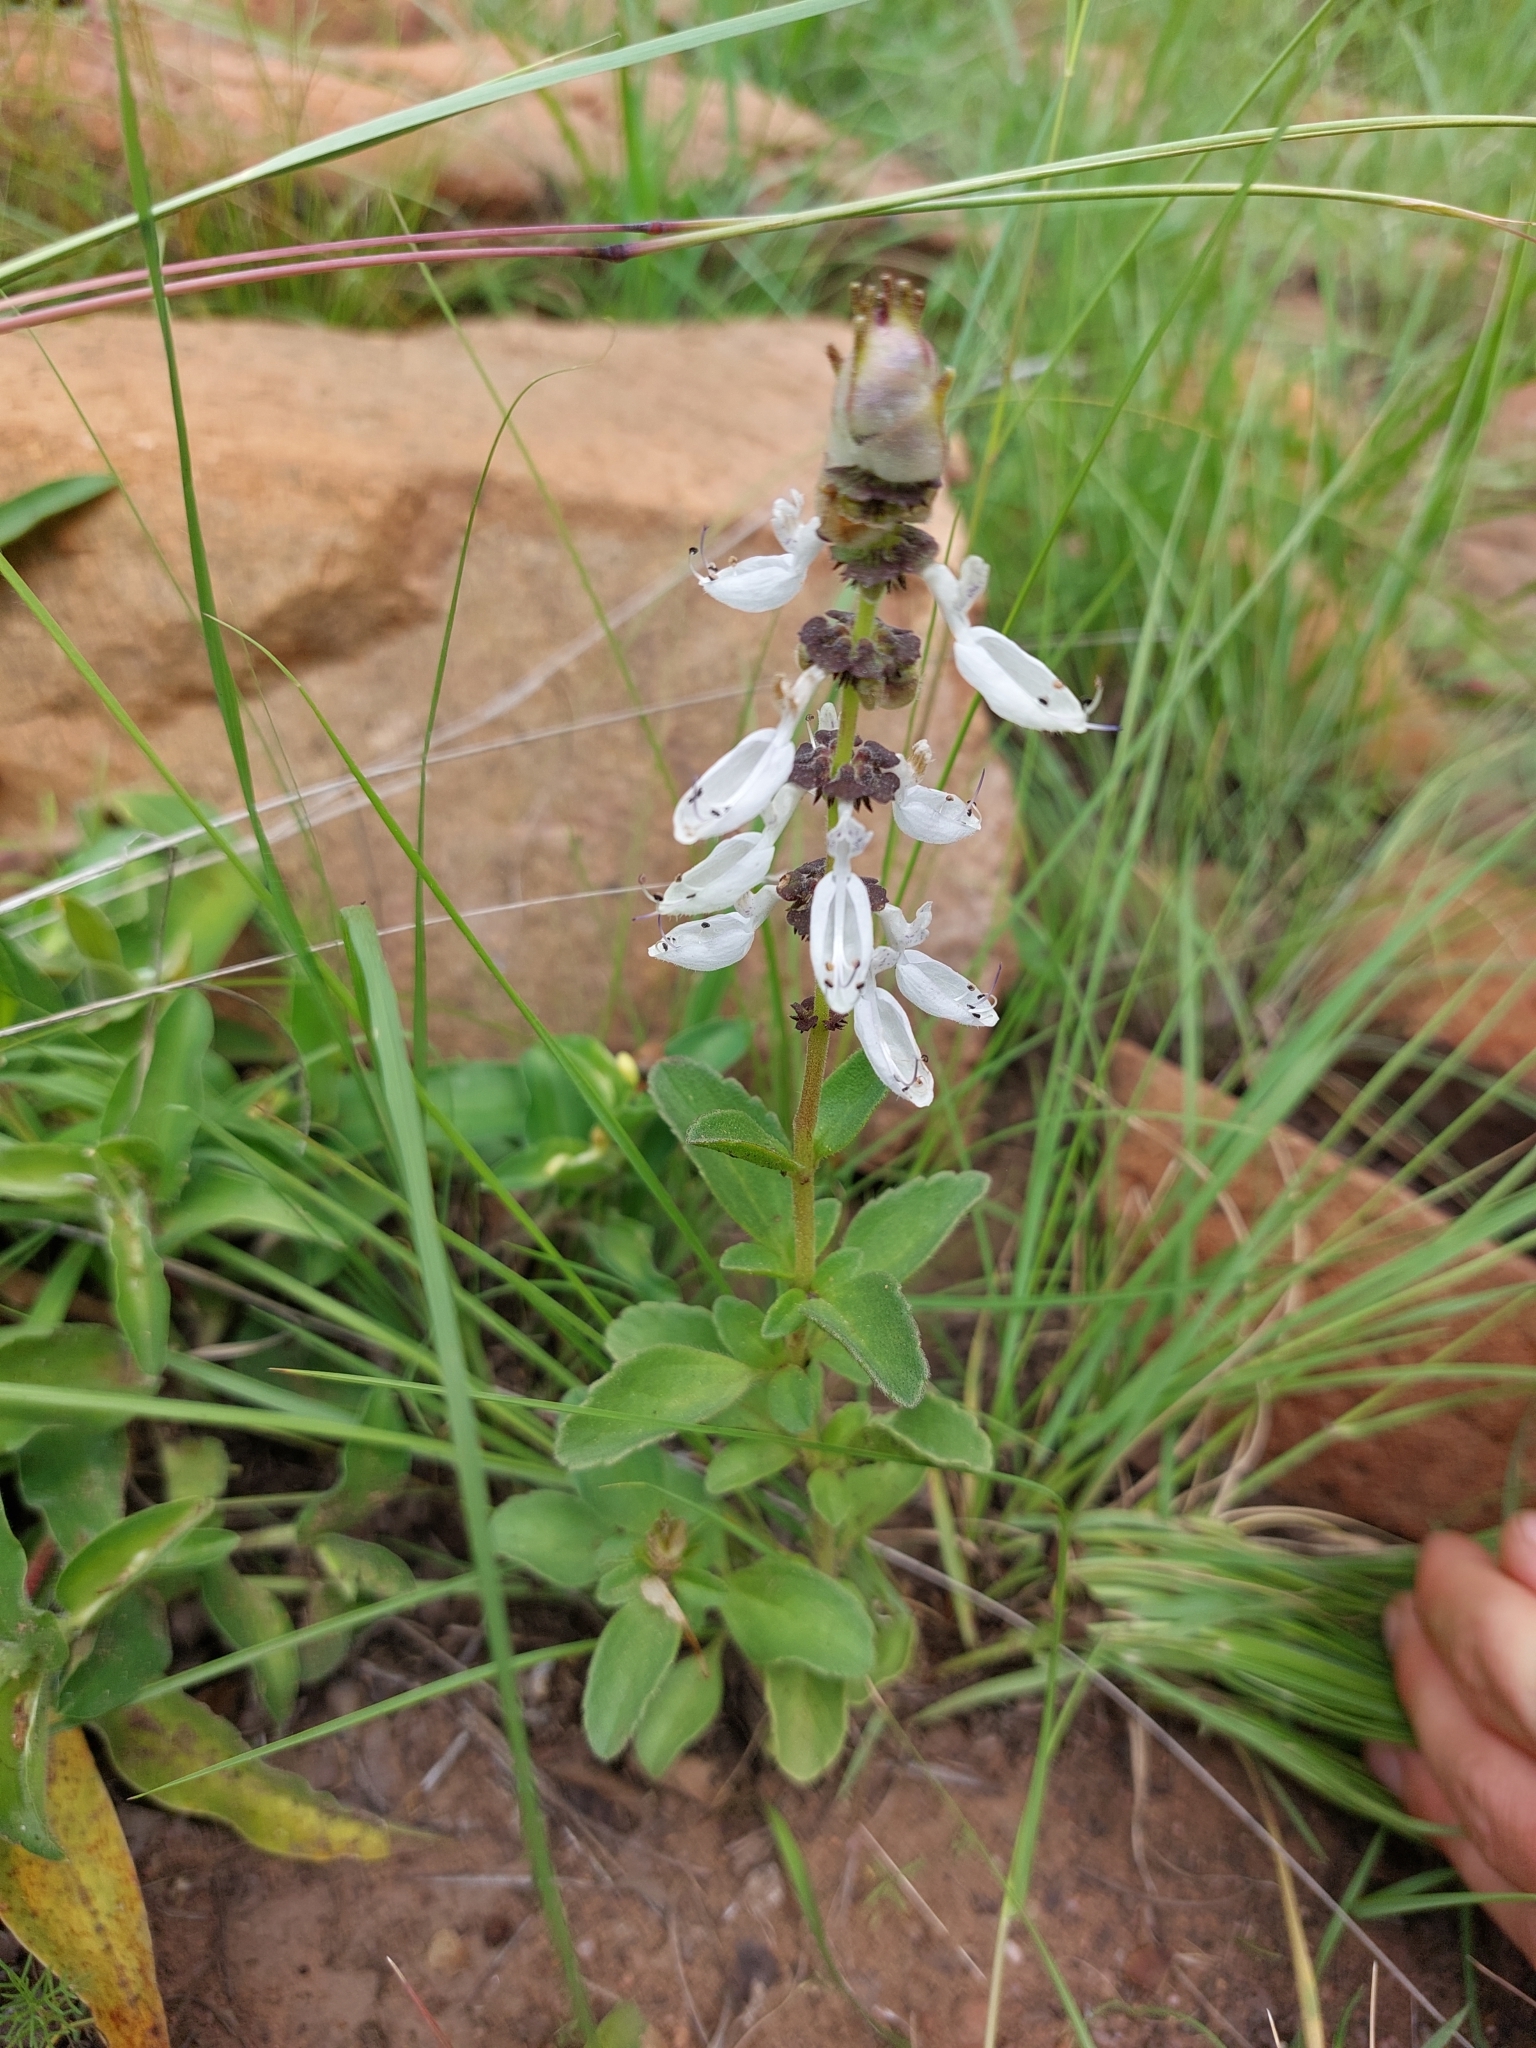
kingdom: Plantae
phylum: Tracheophyta
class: Magnoliopsida
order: Lamiales
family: Lamiaceae
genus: Coleus
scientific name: Coleus neochilus
